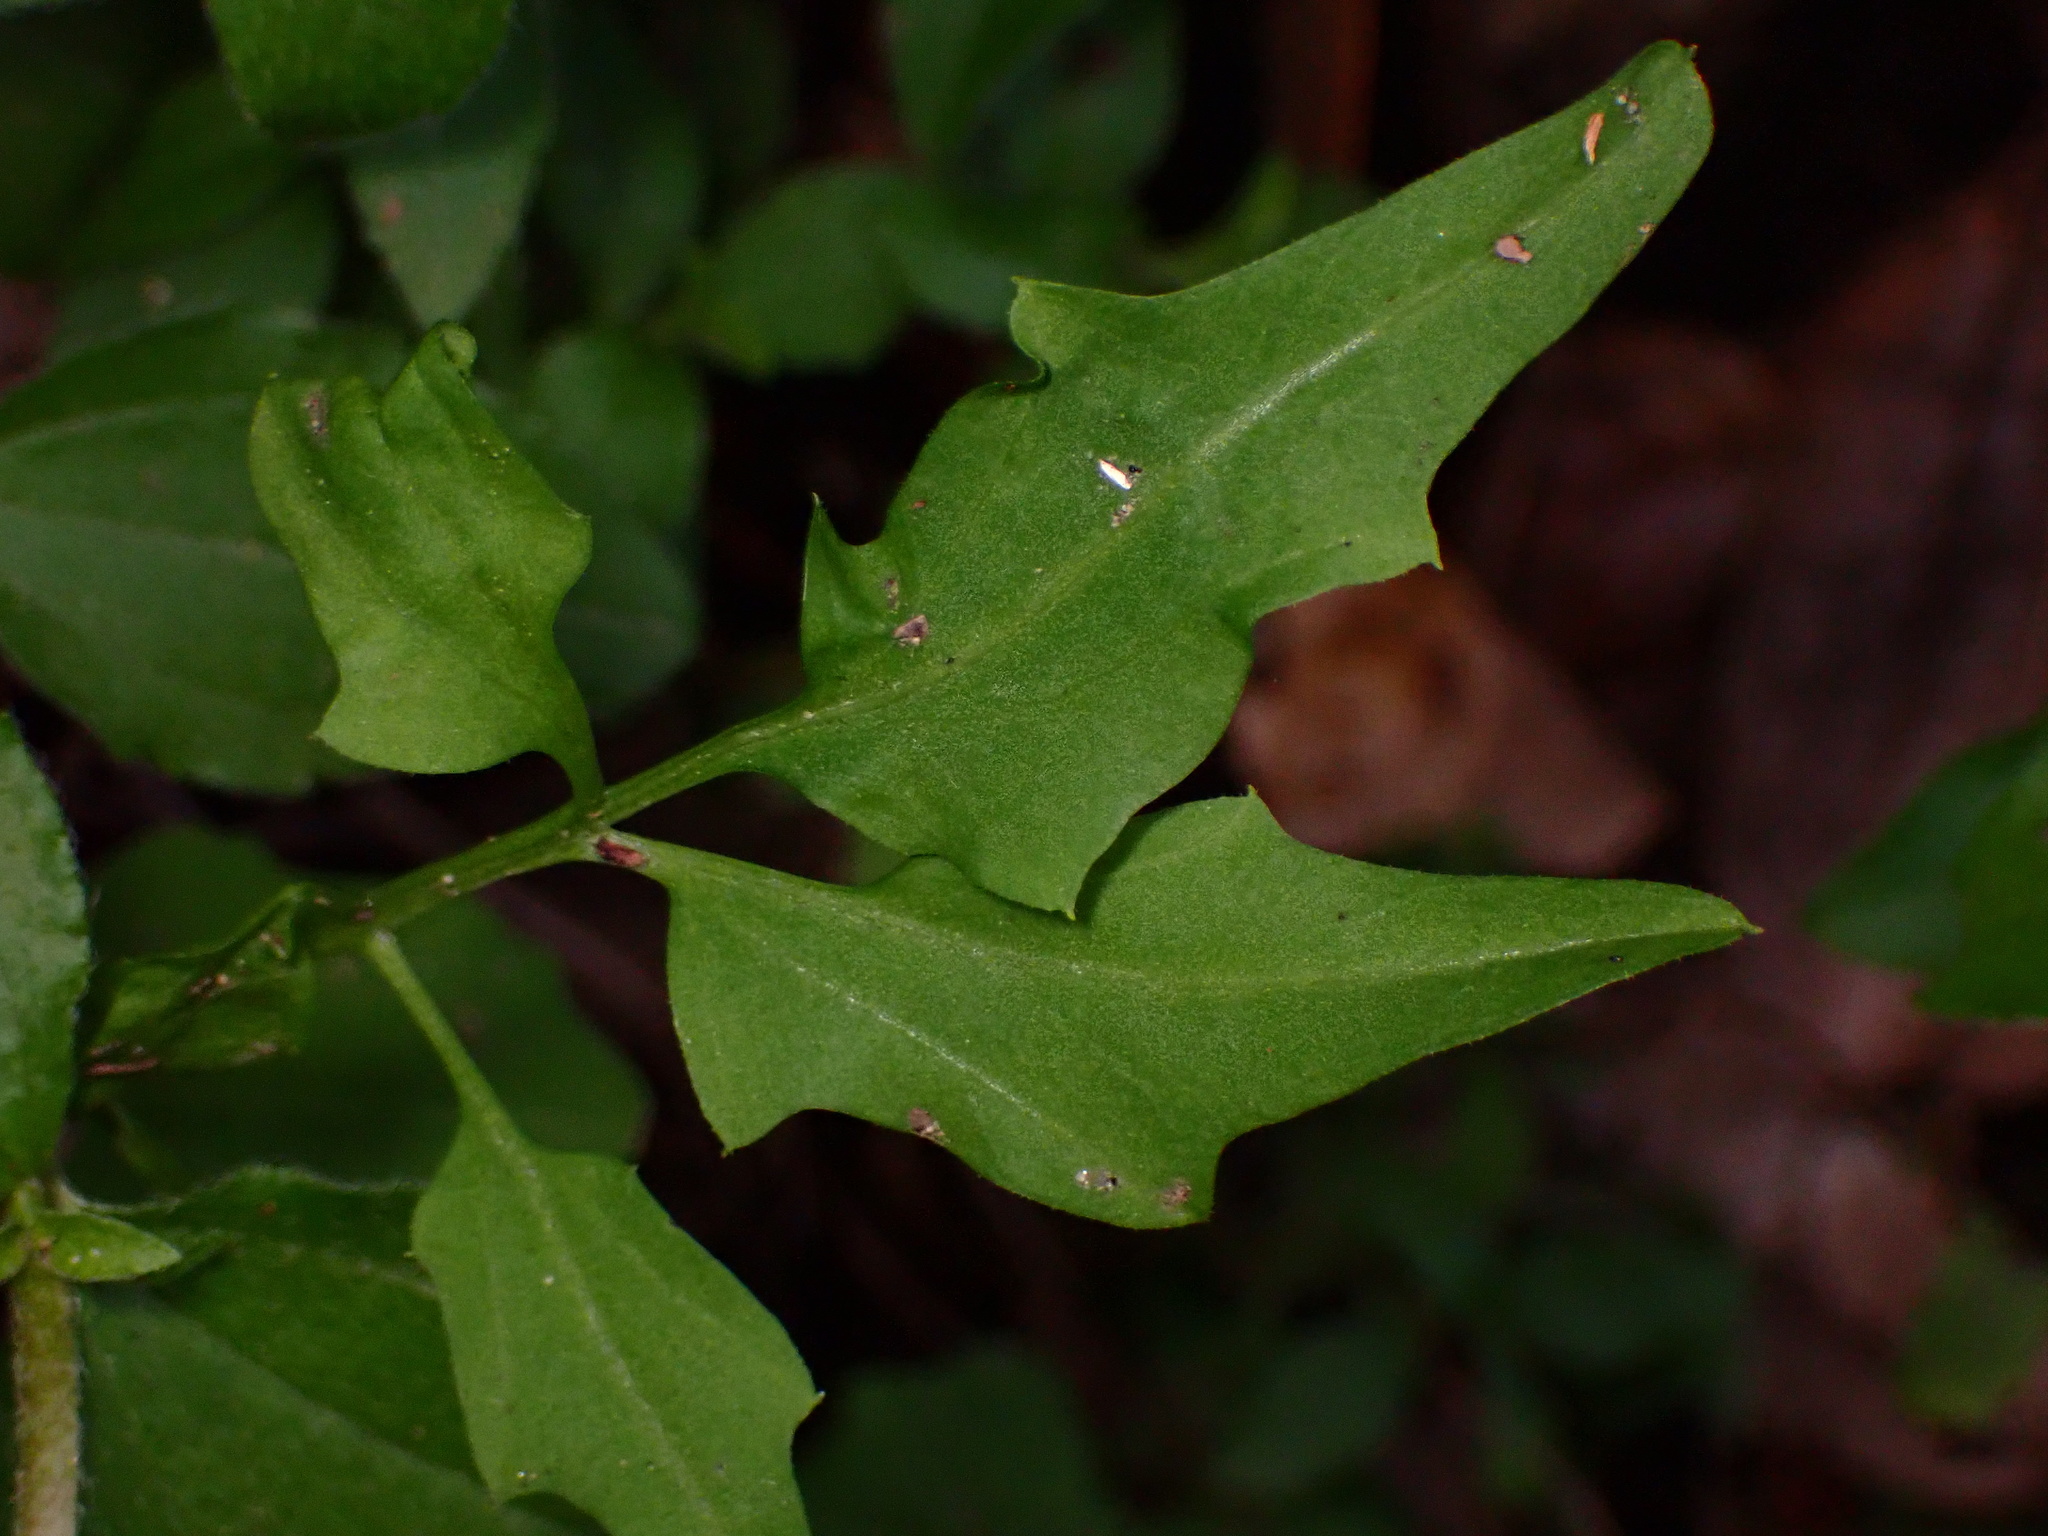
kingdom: Plantae
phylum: Tracheophyta
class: Magnoliopsida
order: Brassicales
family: Brassicaceae
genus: Cardamine
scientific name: Cardamine californica
